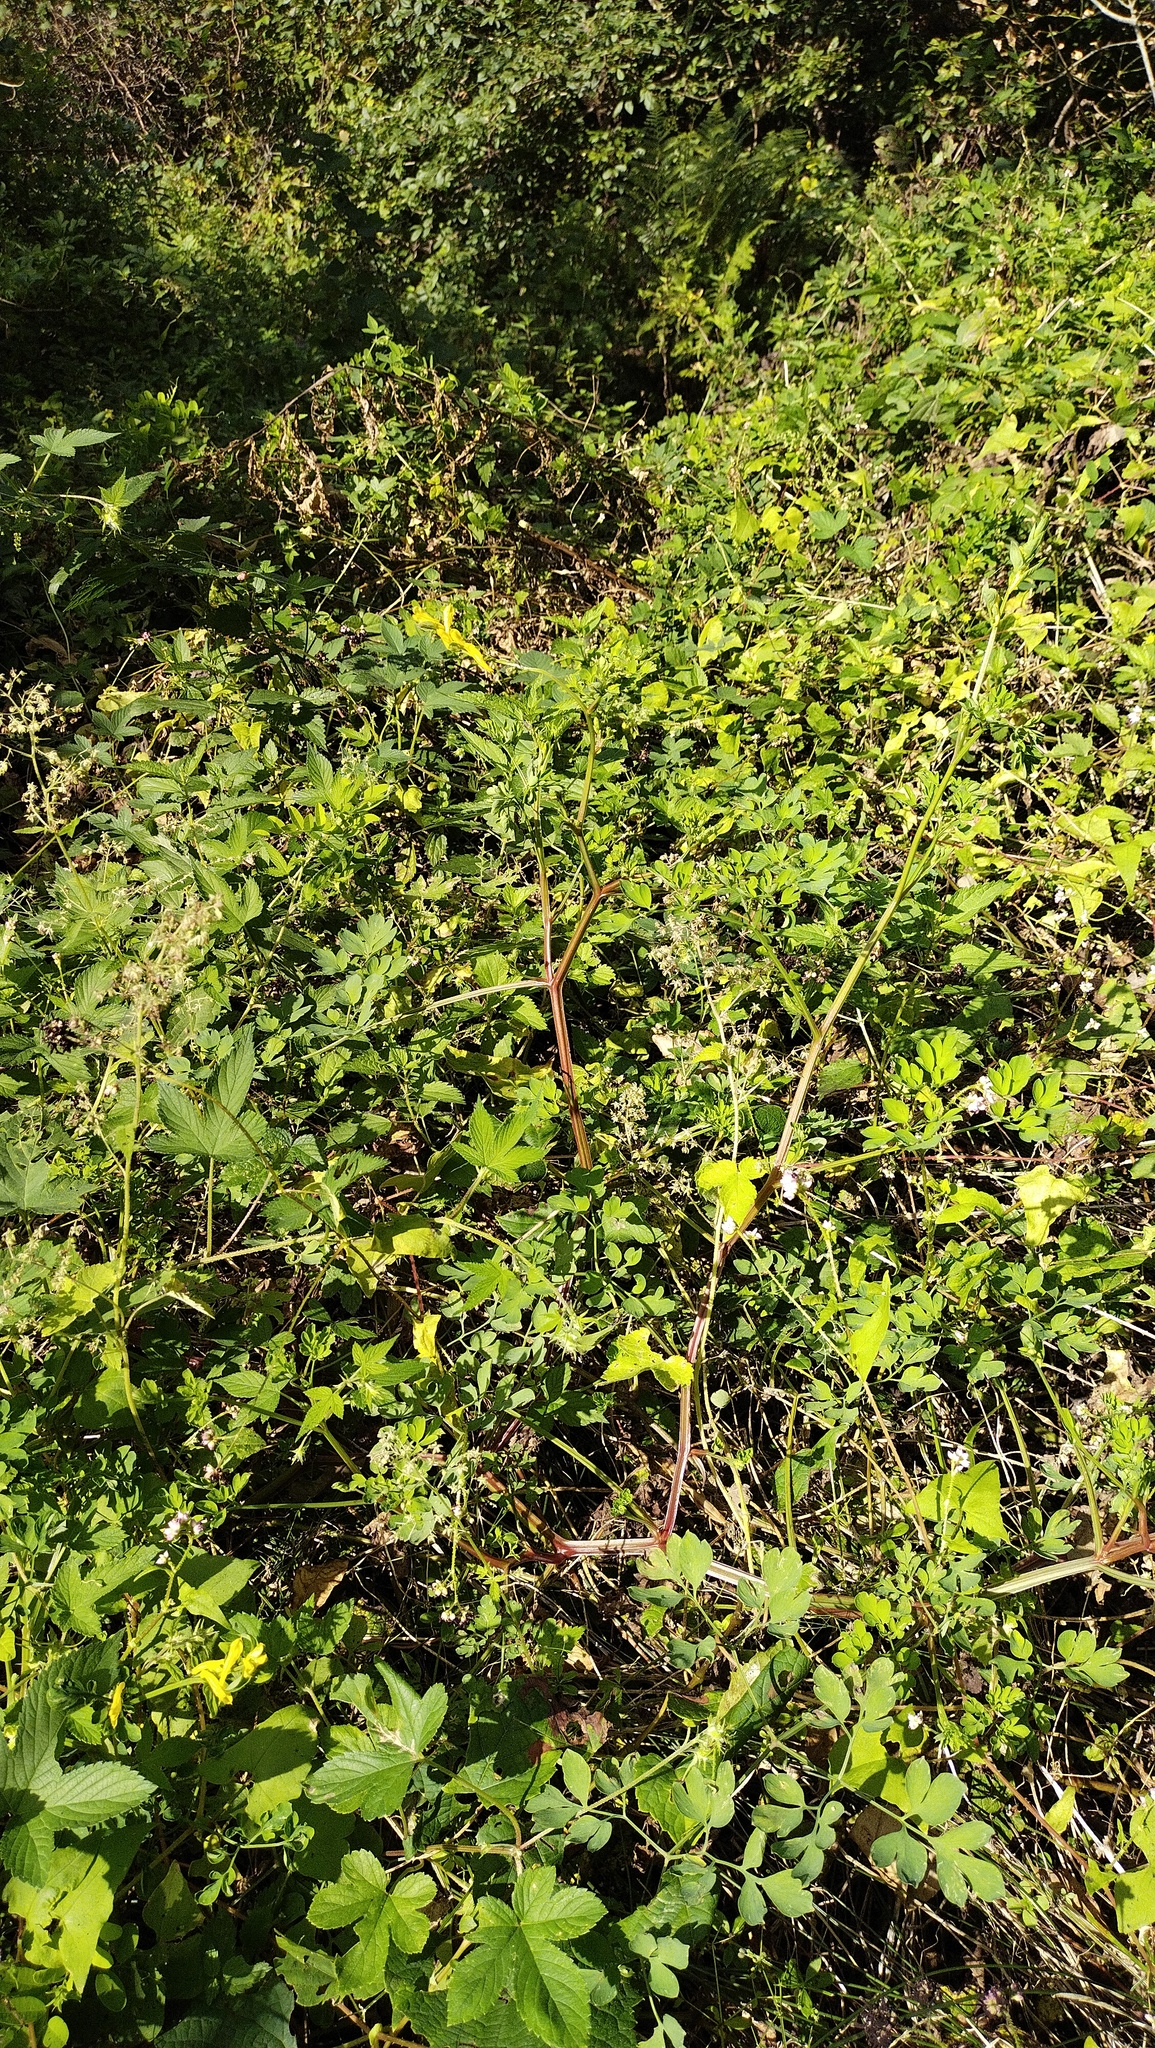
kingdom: Plantae
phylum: Tracheophyta
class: Magnoliopsida
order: Rosales
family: Cannabaceae
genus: Humulus
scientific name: Humulus scandens
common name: Japanese hop
